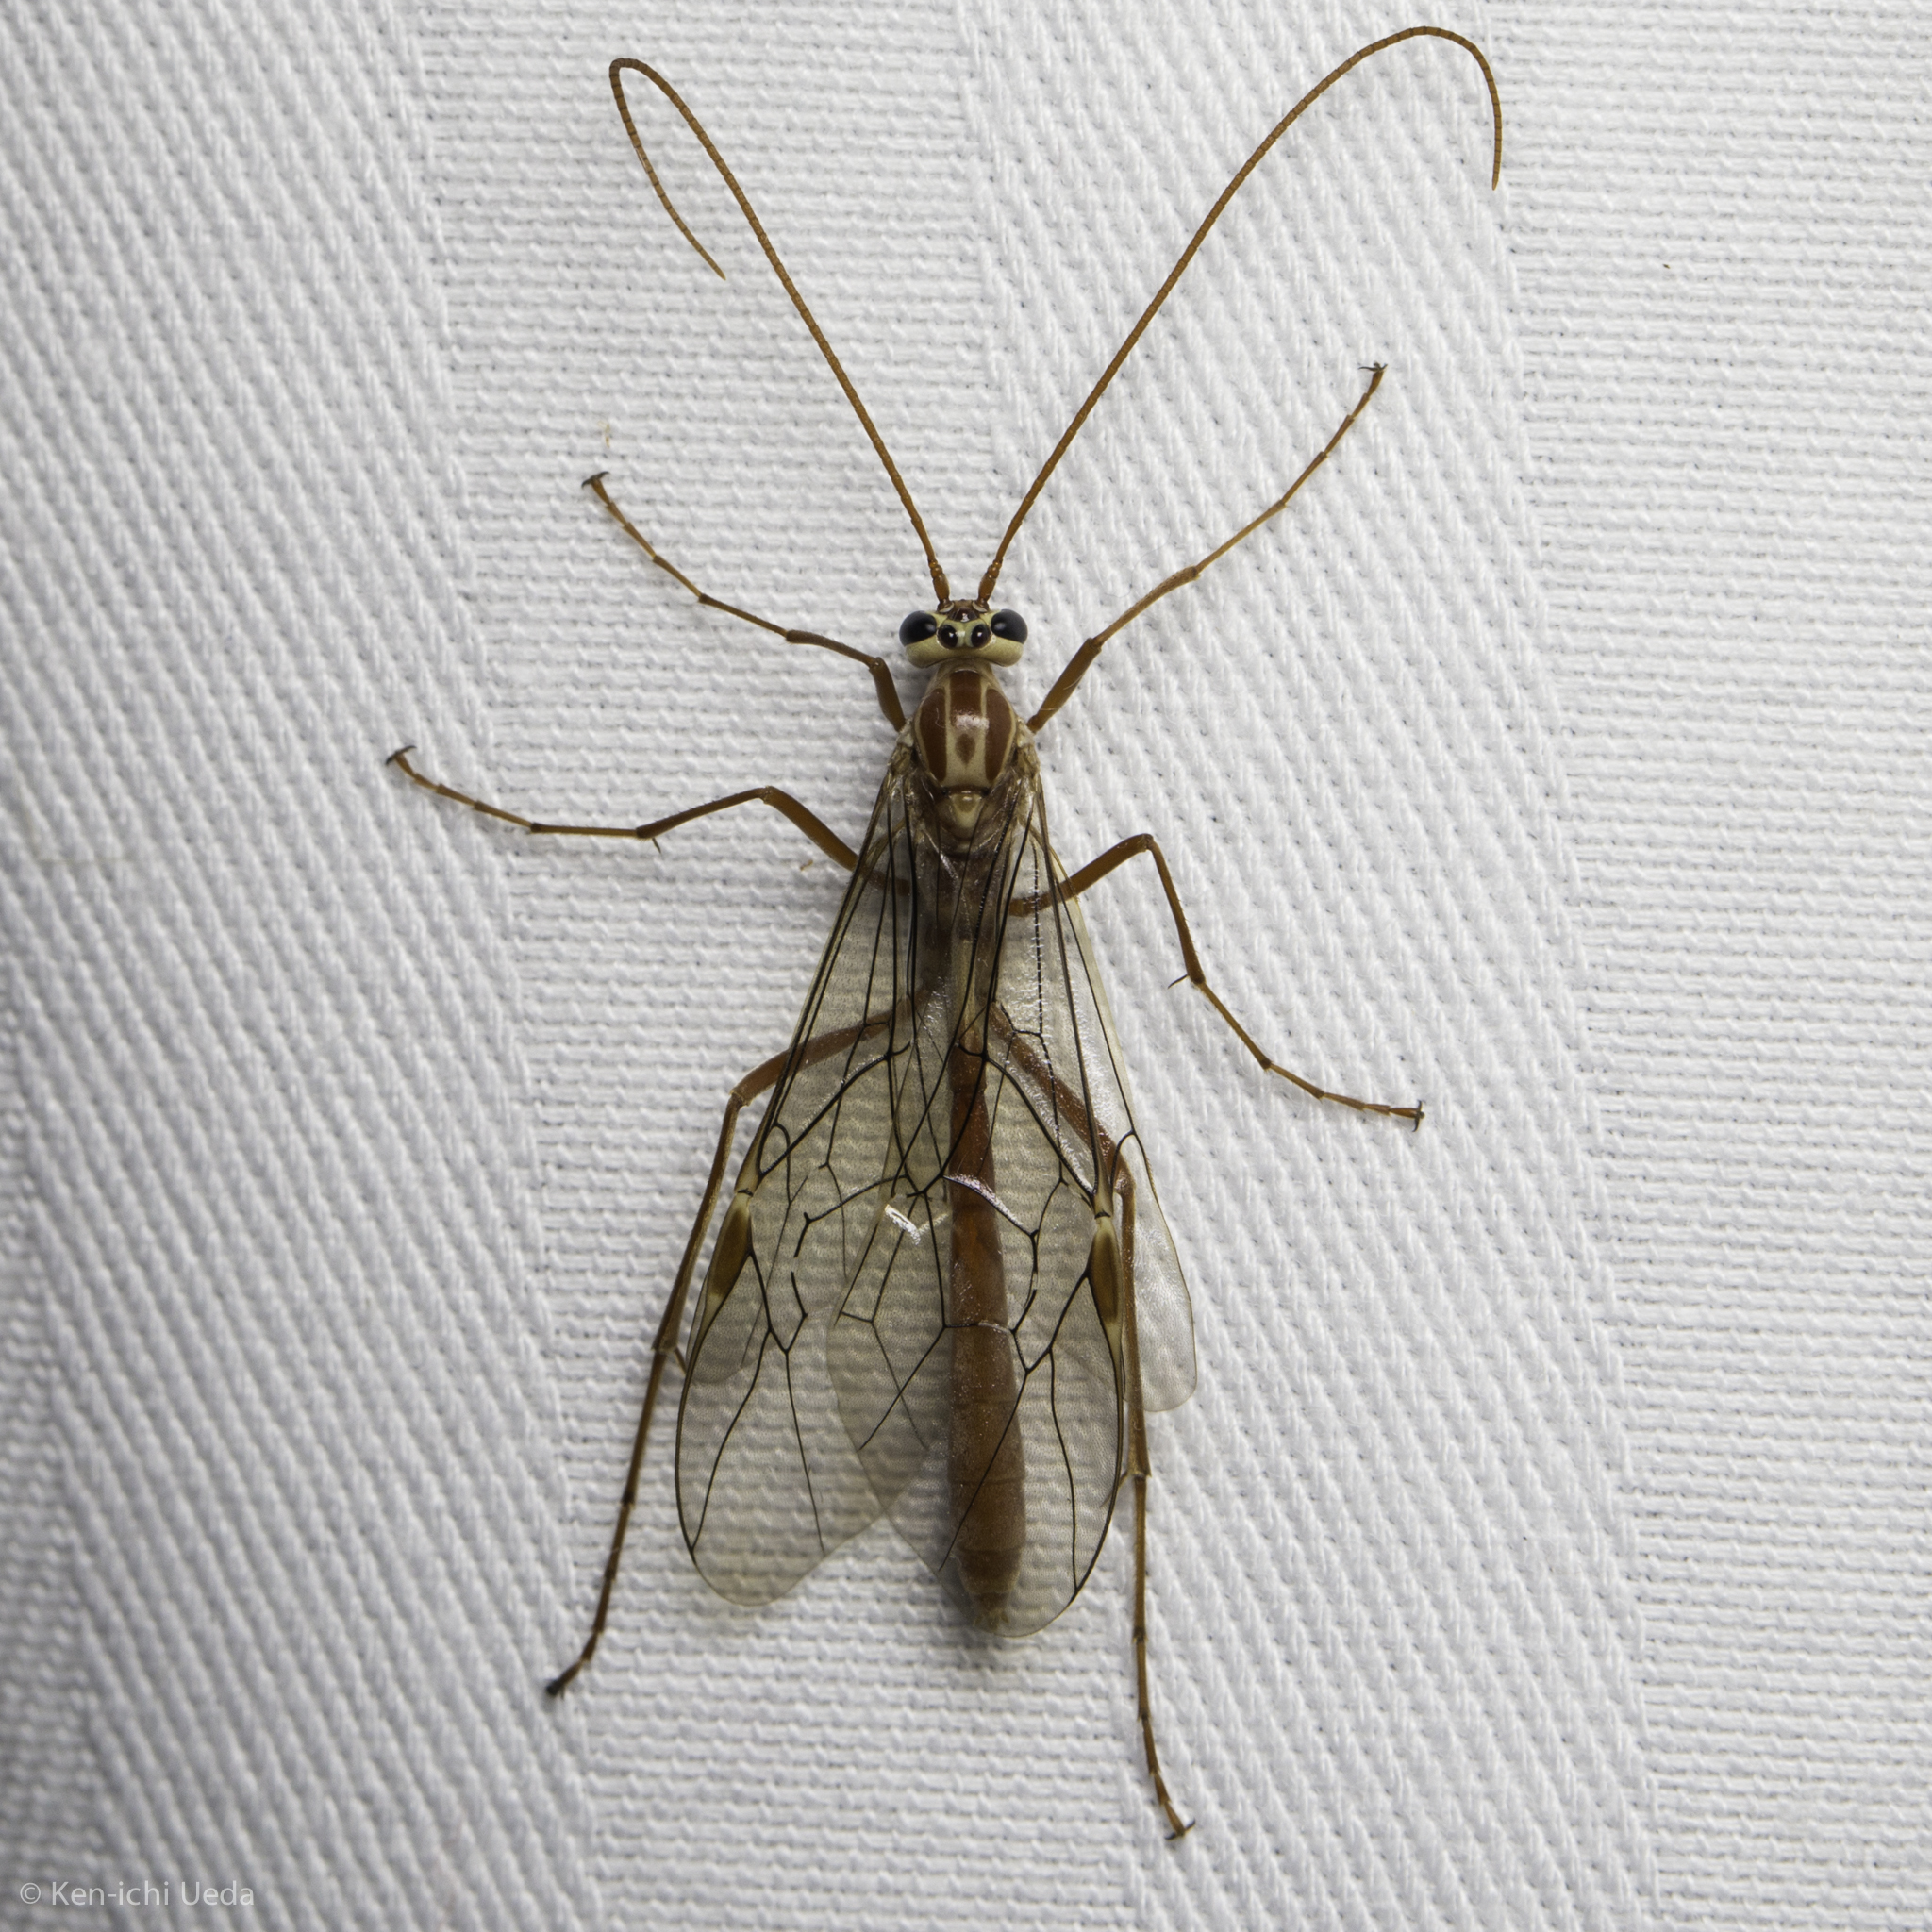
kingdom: Animalia
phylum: Arthropoda
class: Insecta
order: Hymenoptera
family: Ichneumonidae
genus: Ophion
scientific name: Ophion
